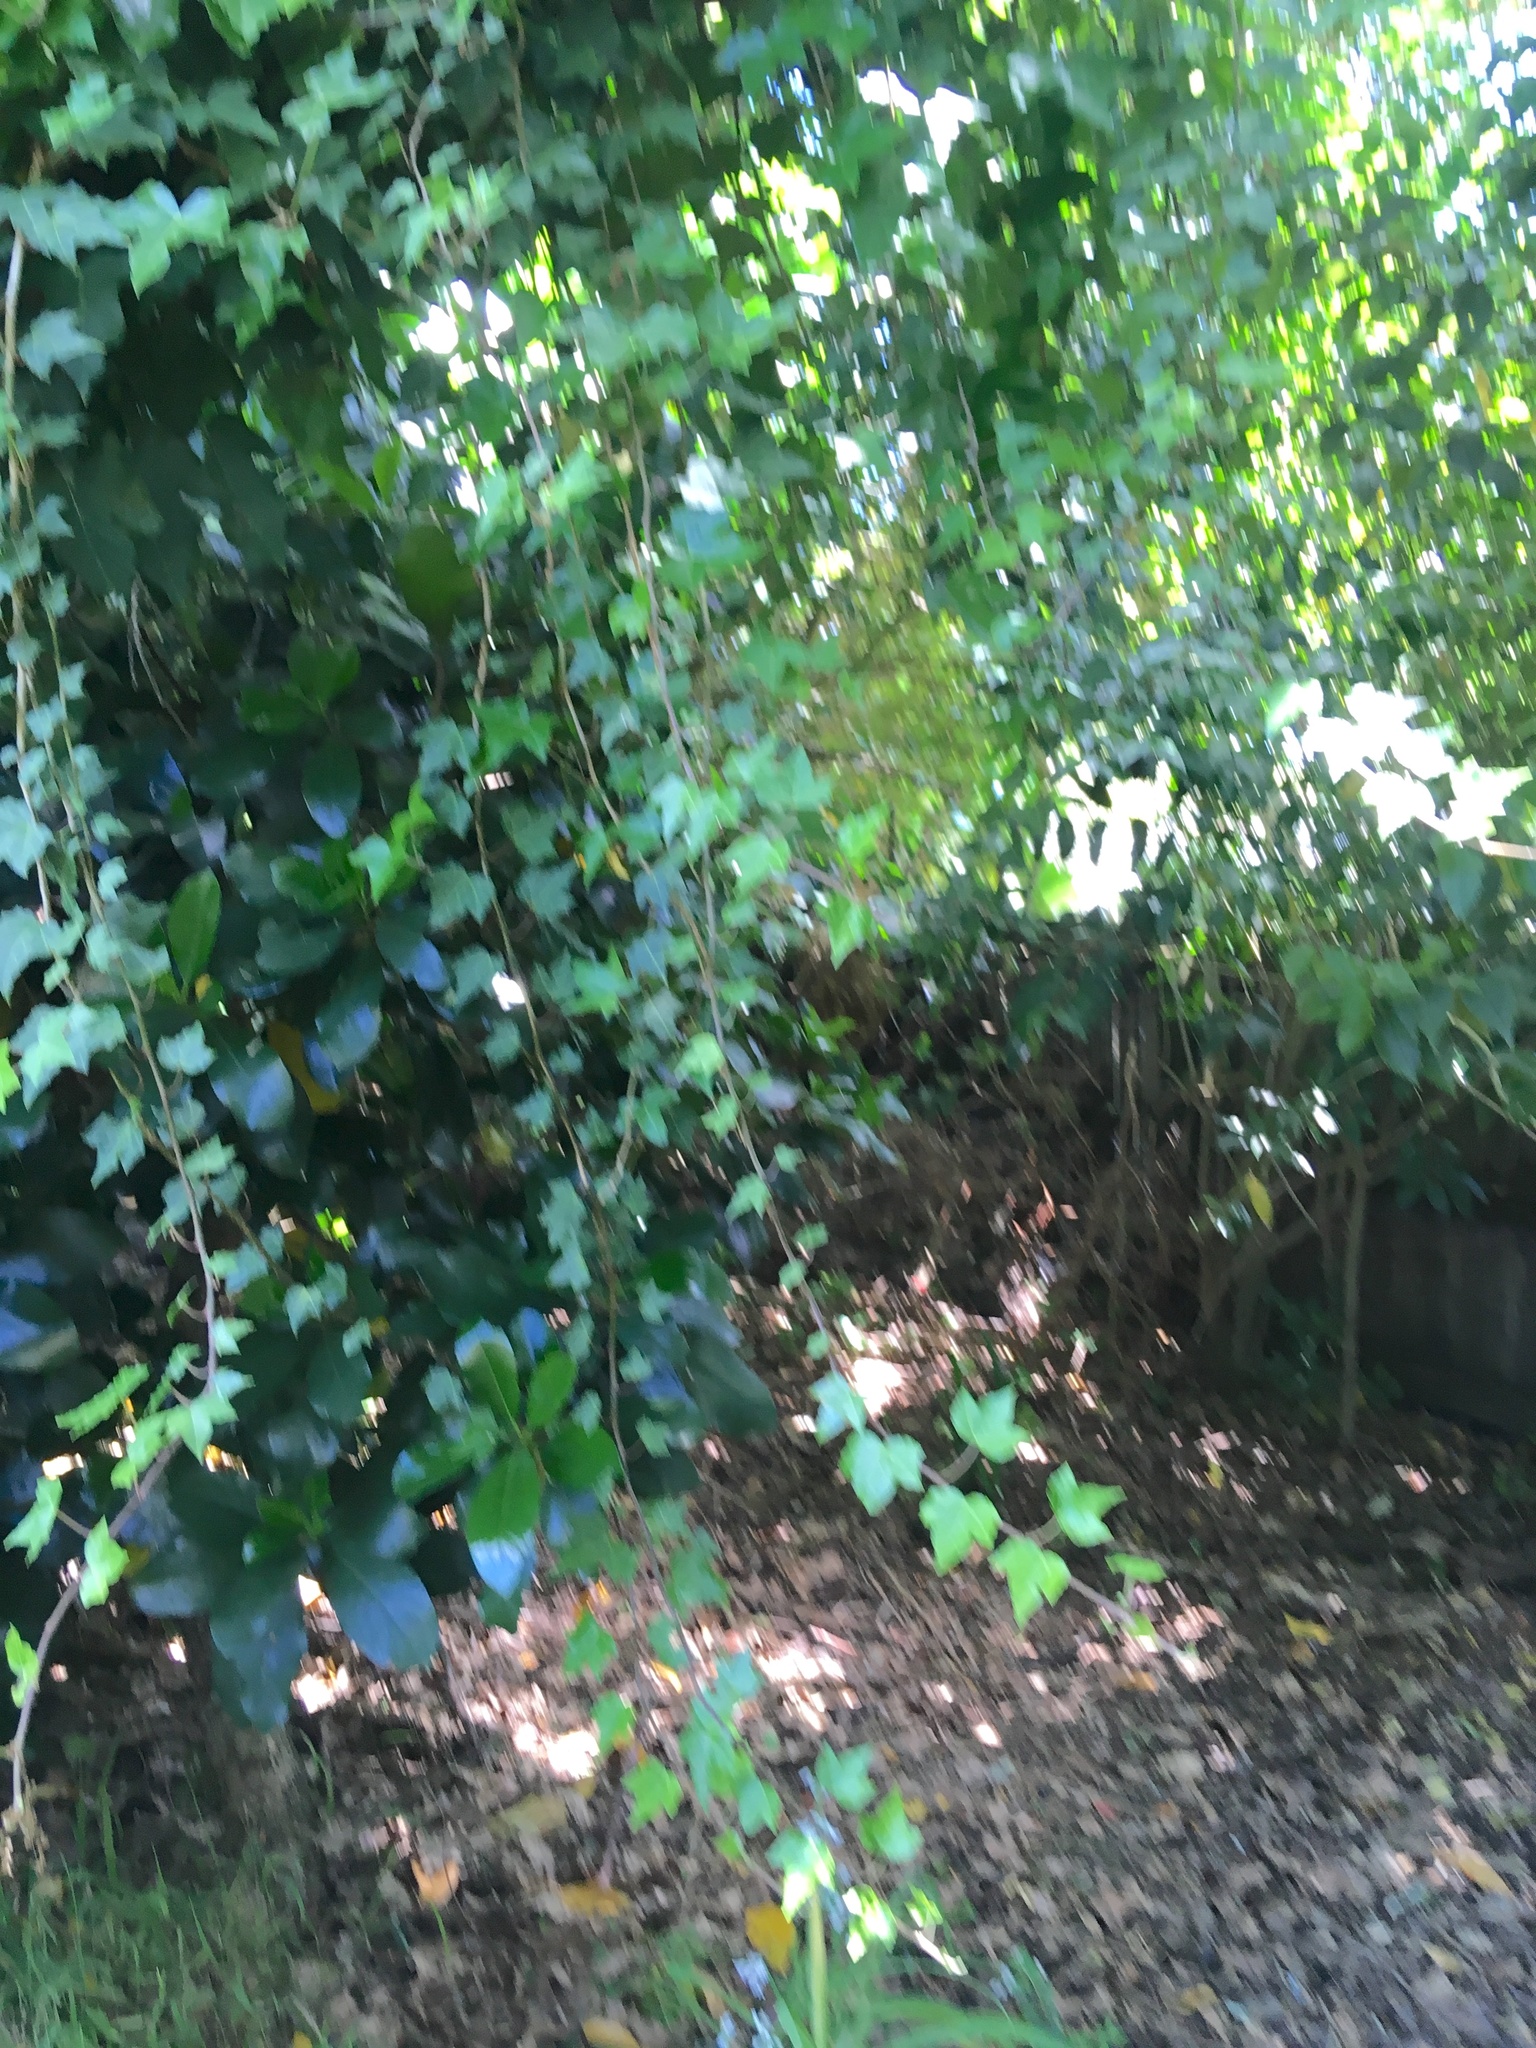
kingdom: Plantae
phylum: Tracheophyta
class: Magnoliopsida
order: Apiales
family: Araliaceae
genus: Hedera
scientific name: Hedera helix
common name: Ivy
